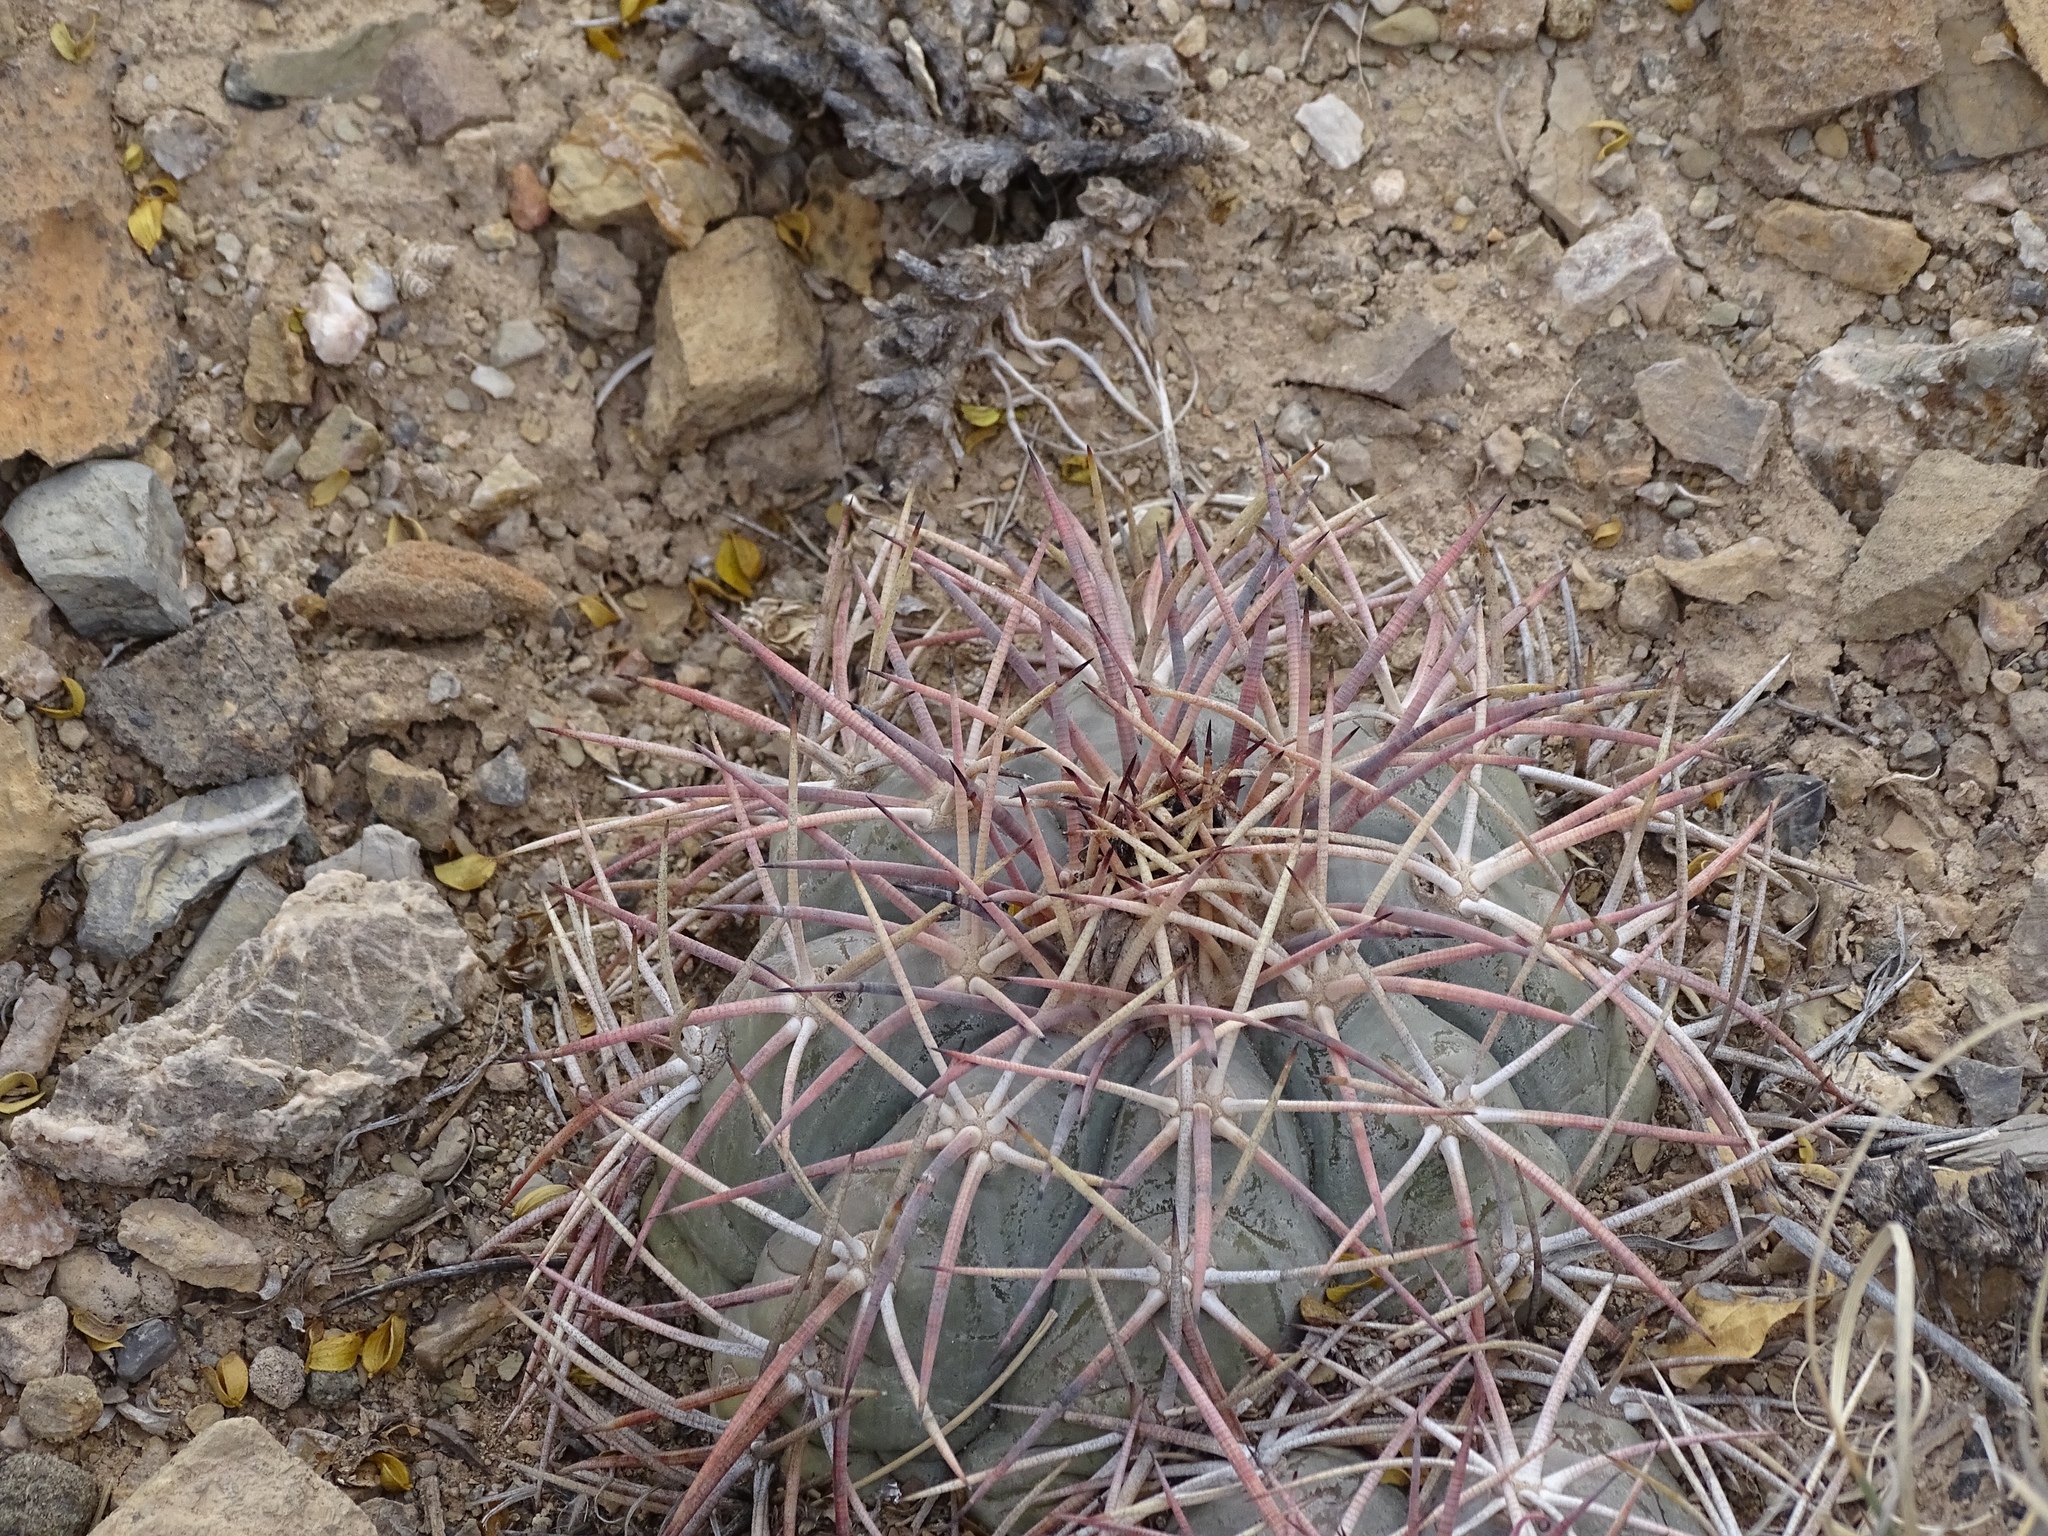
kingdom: Plantae
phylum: Tracheophyta
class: Magnoliopsida
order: Caryophyllales
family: Cactaceae
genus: Echinocactus
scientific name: Echinocactus horizonthalonius
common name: Devilshead
